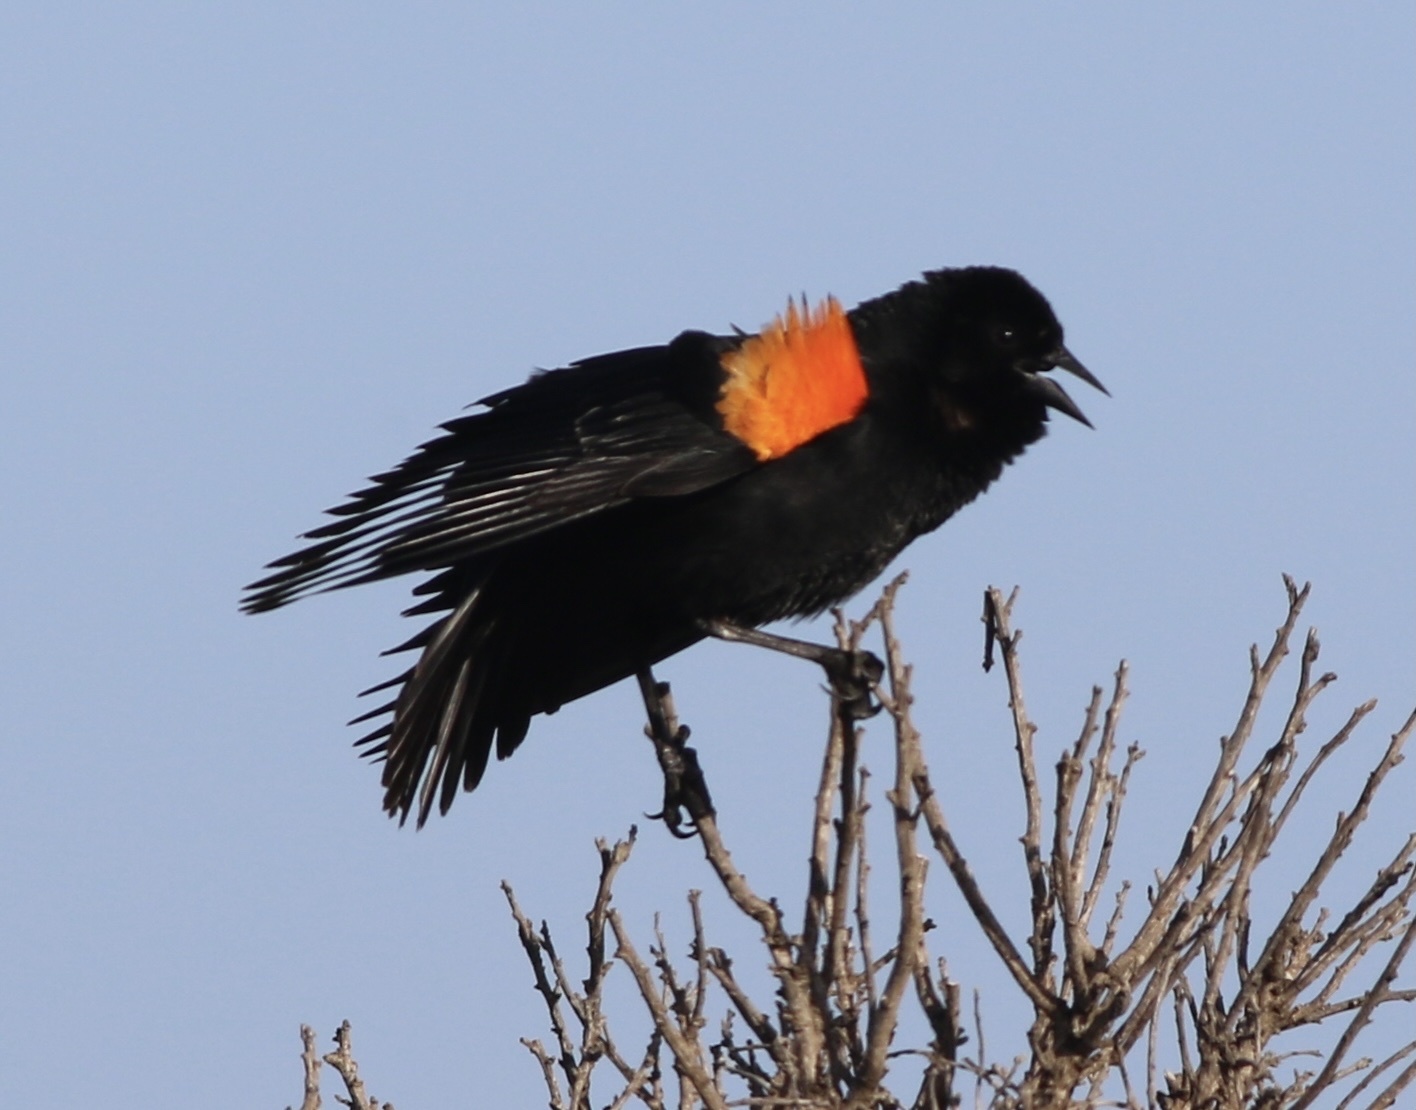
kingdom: Animalia
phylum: Chordata
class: Aves
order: Passeriformes
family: Icteridae
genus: Agelaius
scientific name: Agelaius phoeniceus
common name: Red-winged blackbird
